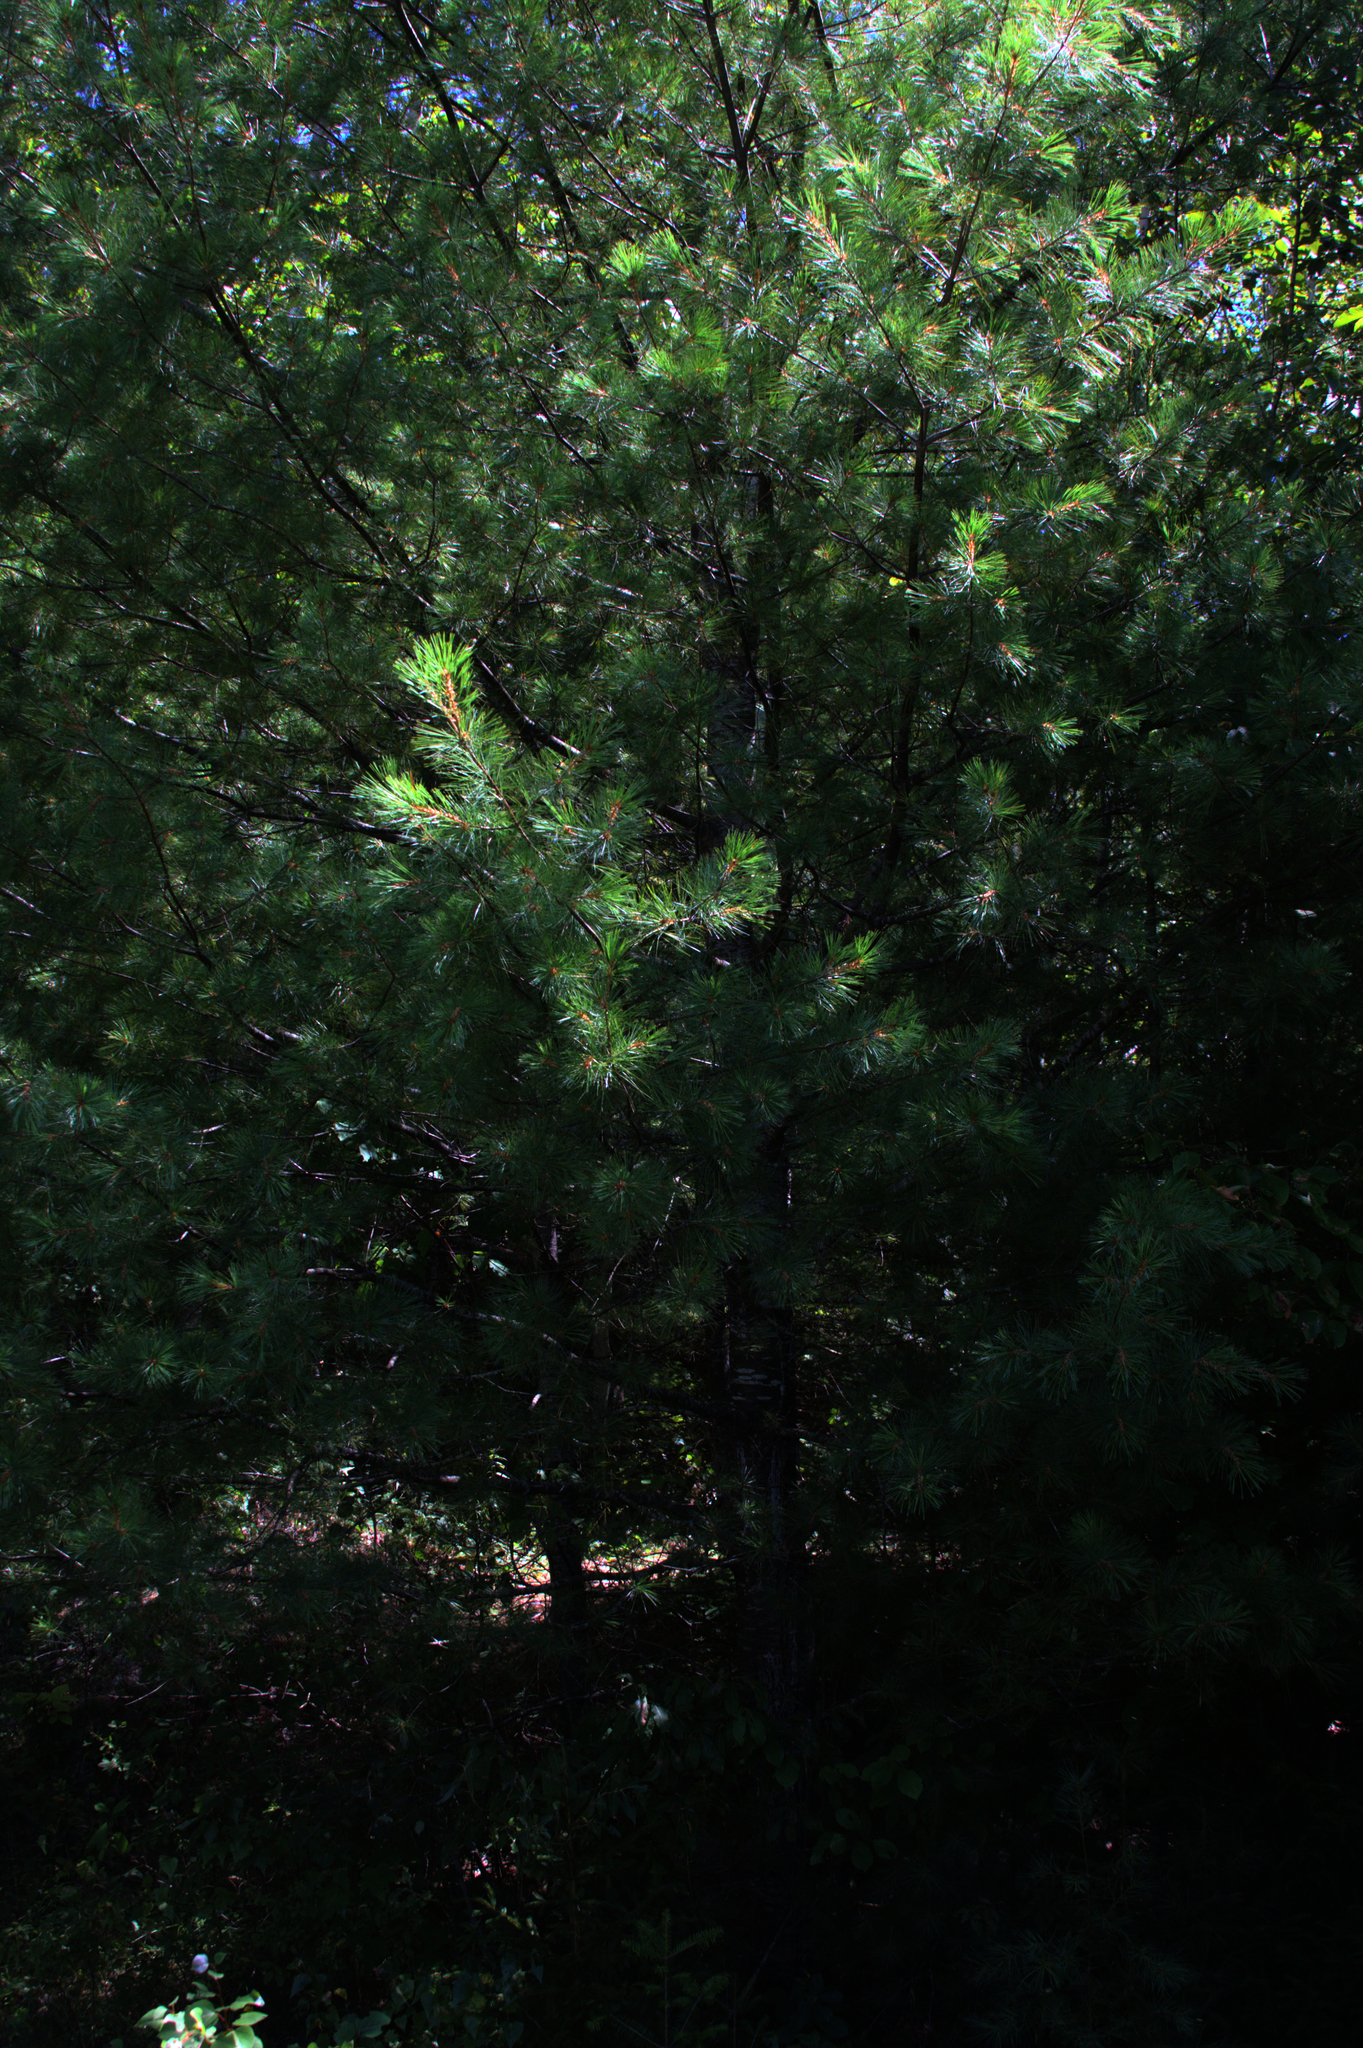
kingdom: Plantae
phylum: Tracheophyta
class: Pinopsida
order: Pinales
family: Pinaceae
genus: Pinus
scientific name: Pinus strobus
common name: Weymouth pine
